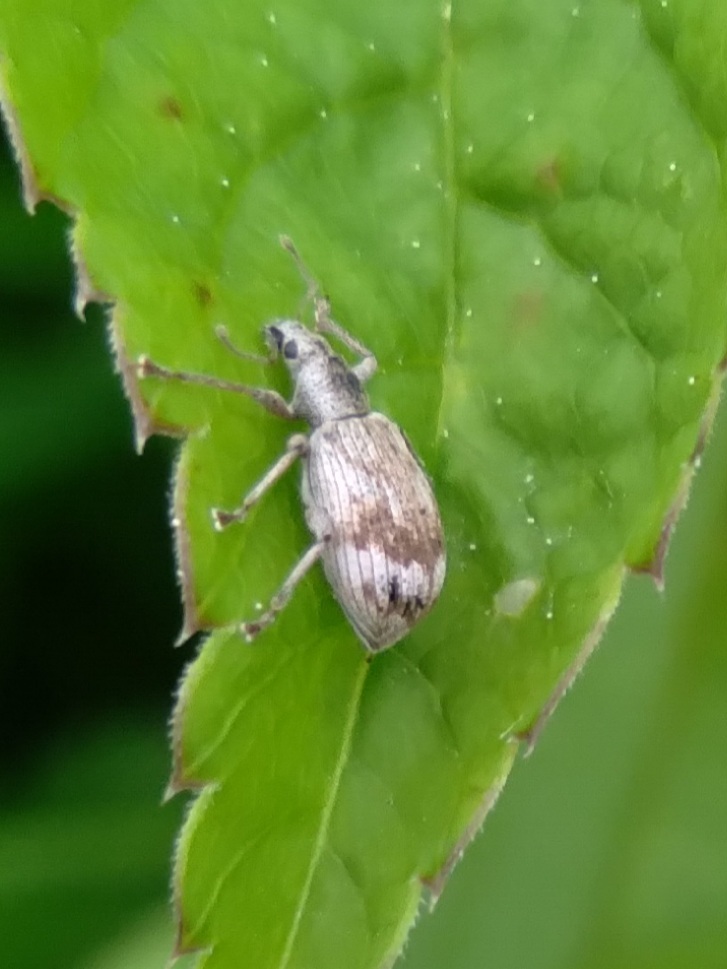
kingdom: Animalia
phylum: Arthropoda
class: Insecta
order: Coleoptera
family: Curculionidae
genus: Polydrusus
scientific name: Polydrusus tereticollis
